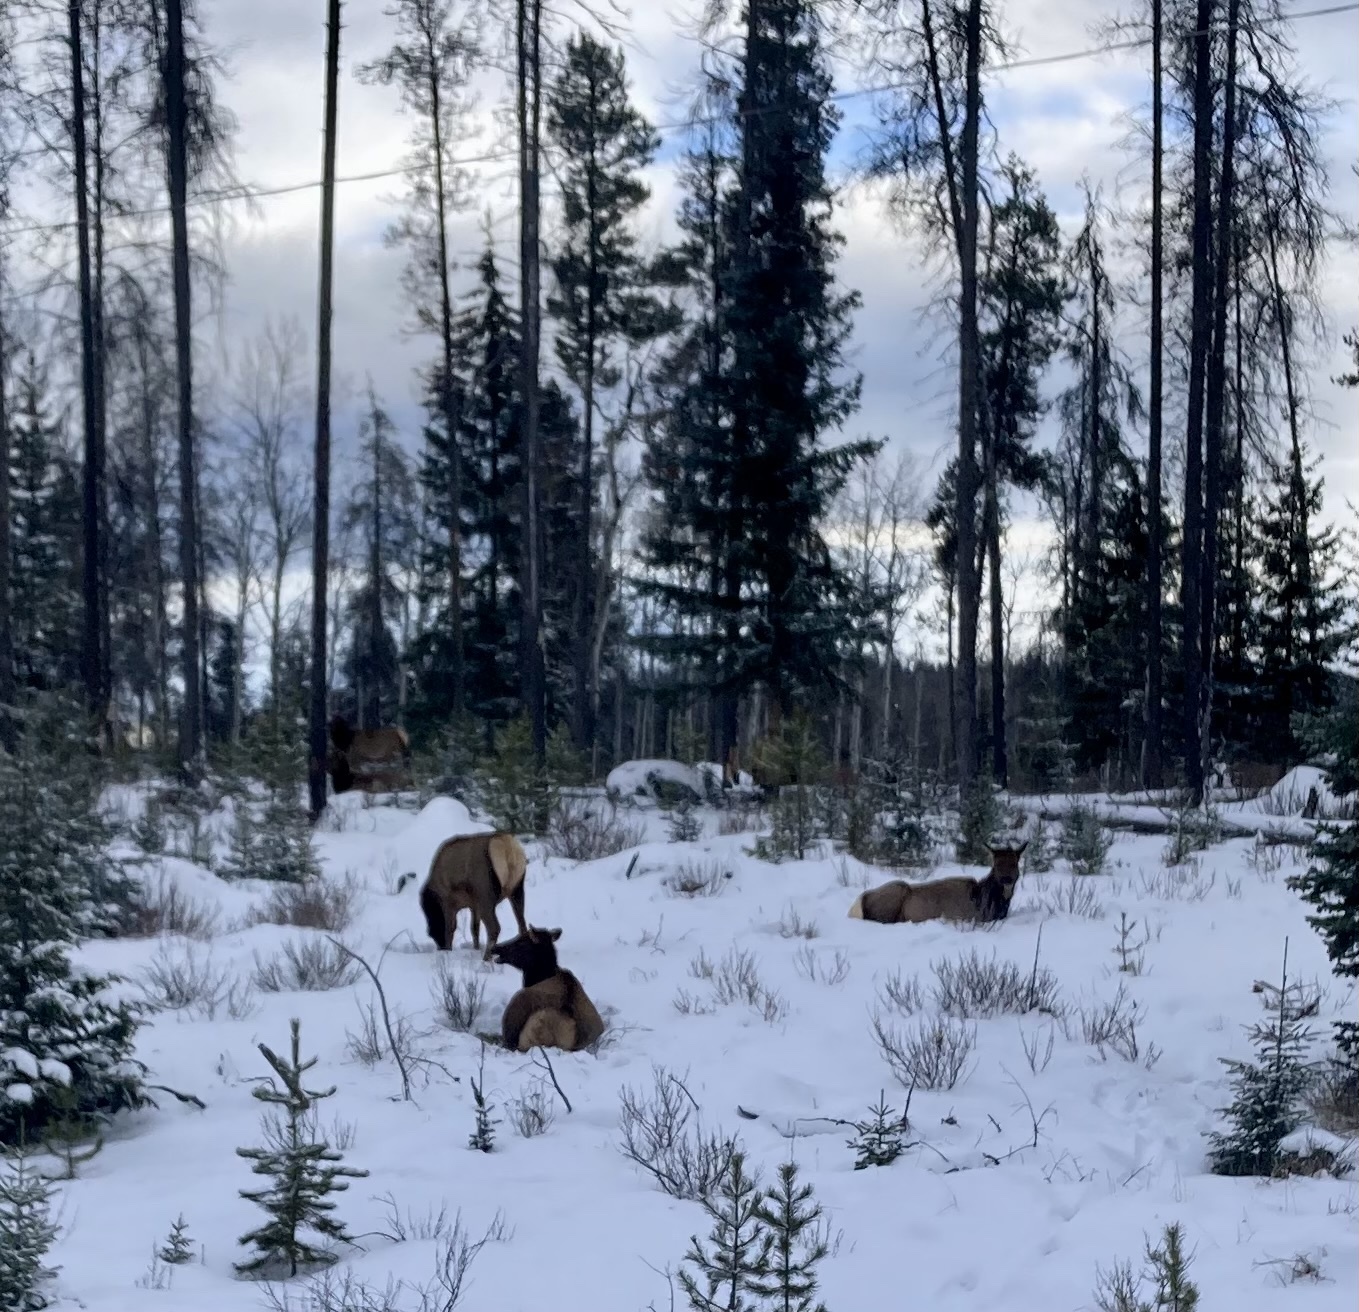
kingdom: Animalia
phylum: Chordata
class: Mammalia
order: Artiodactyla
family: Cervidae
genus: Cervus
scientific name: Cervus elaphus
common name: Red deer
